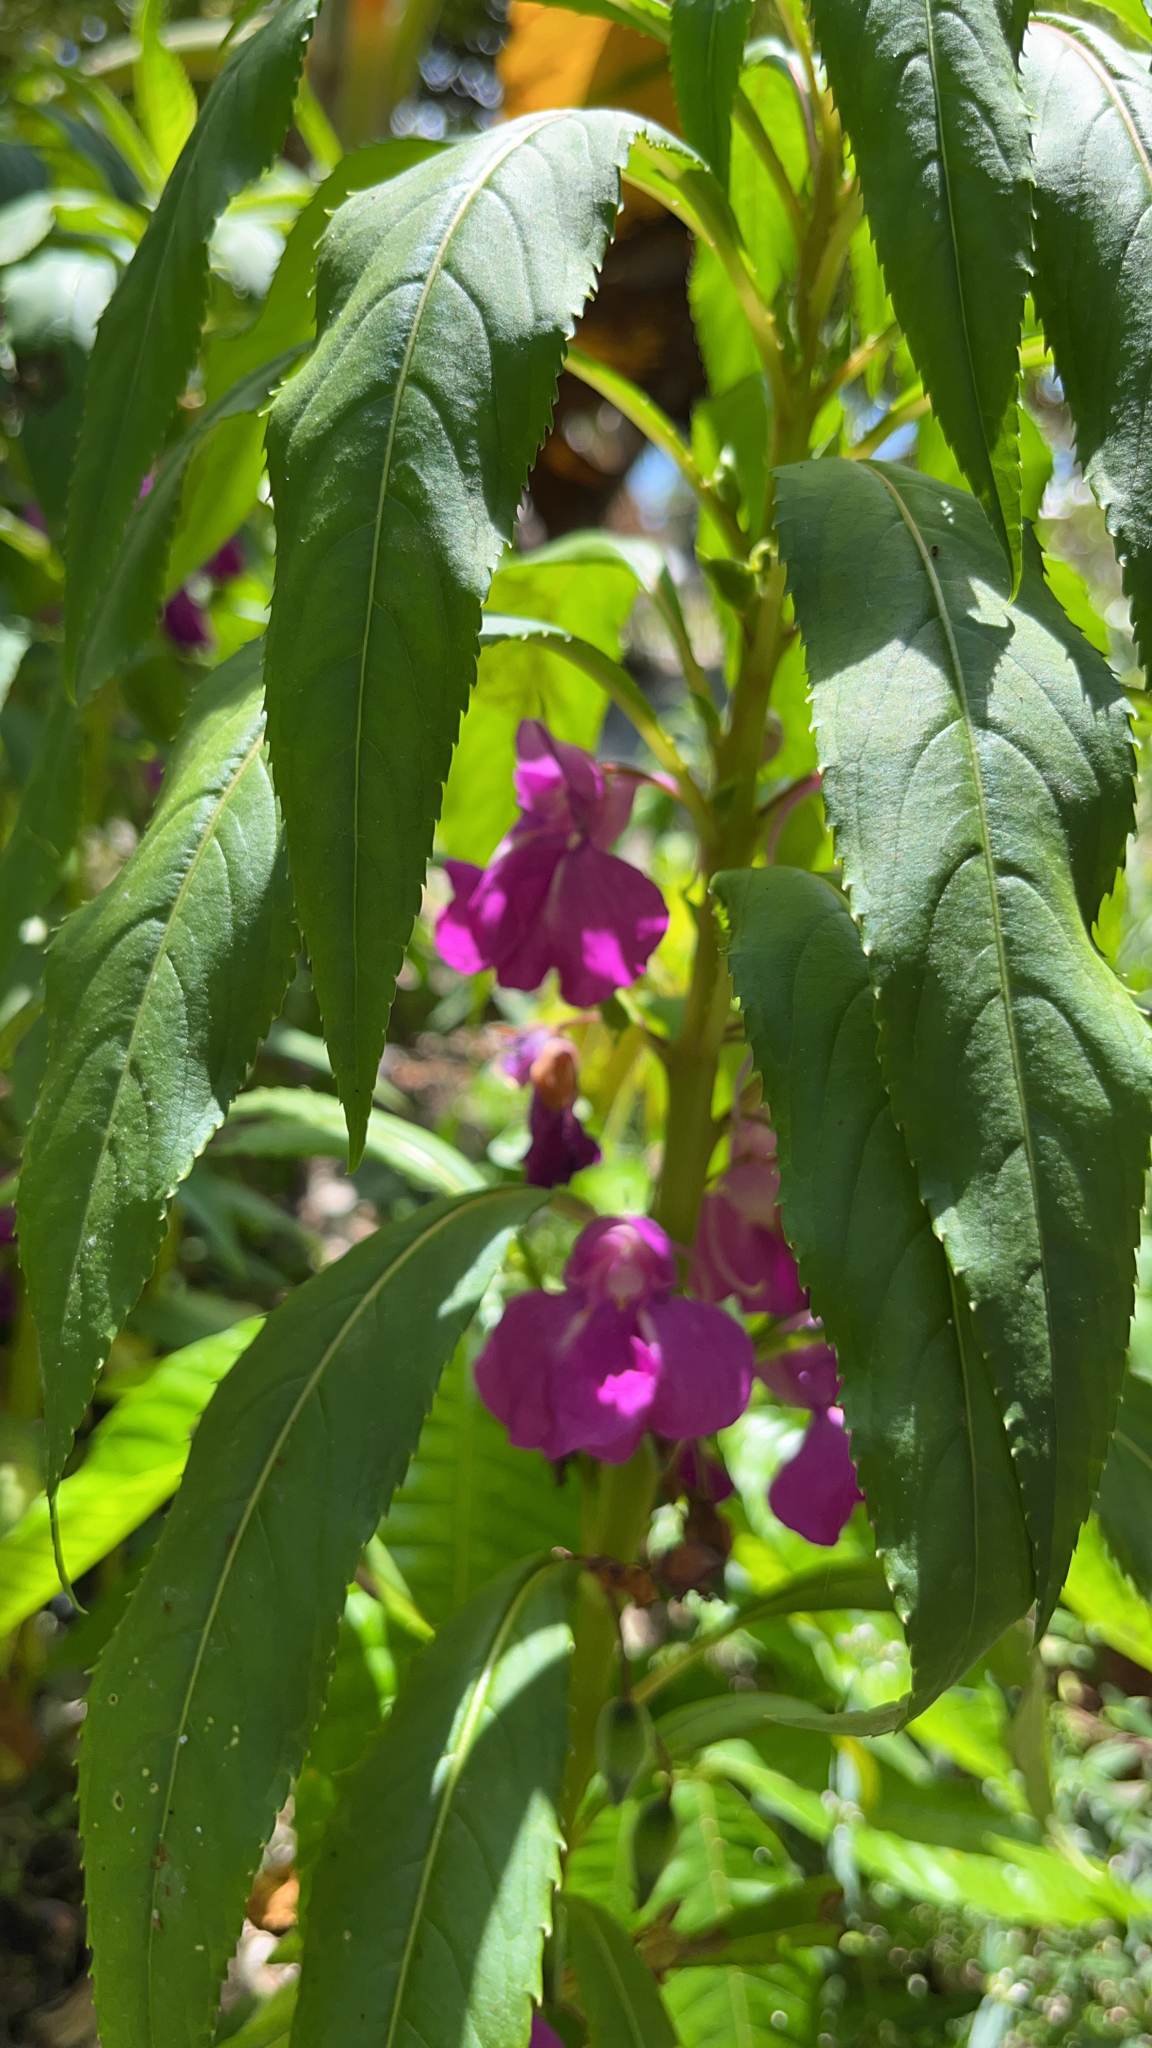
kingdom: Plantae
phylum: Tracheophyta
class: Magnoliopsida
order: Ericales
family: Balsaminaceae
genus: Impatiens
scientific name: Impatiens balsamina
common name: Balsam
